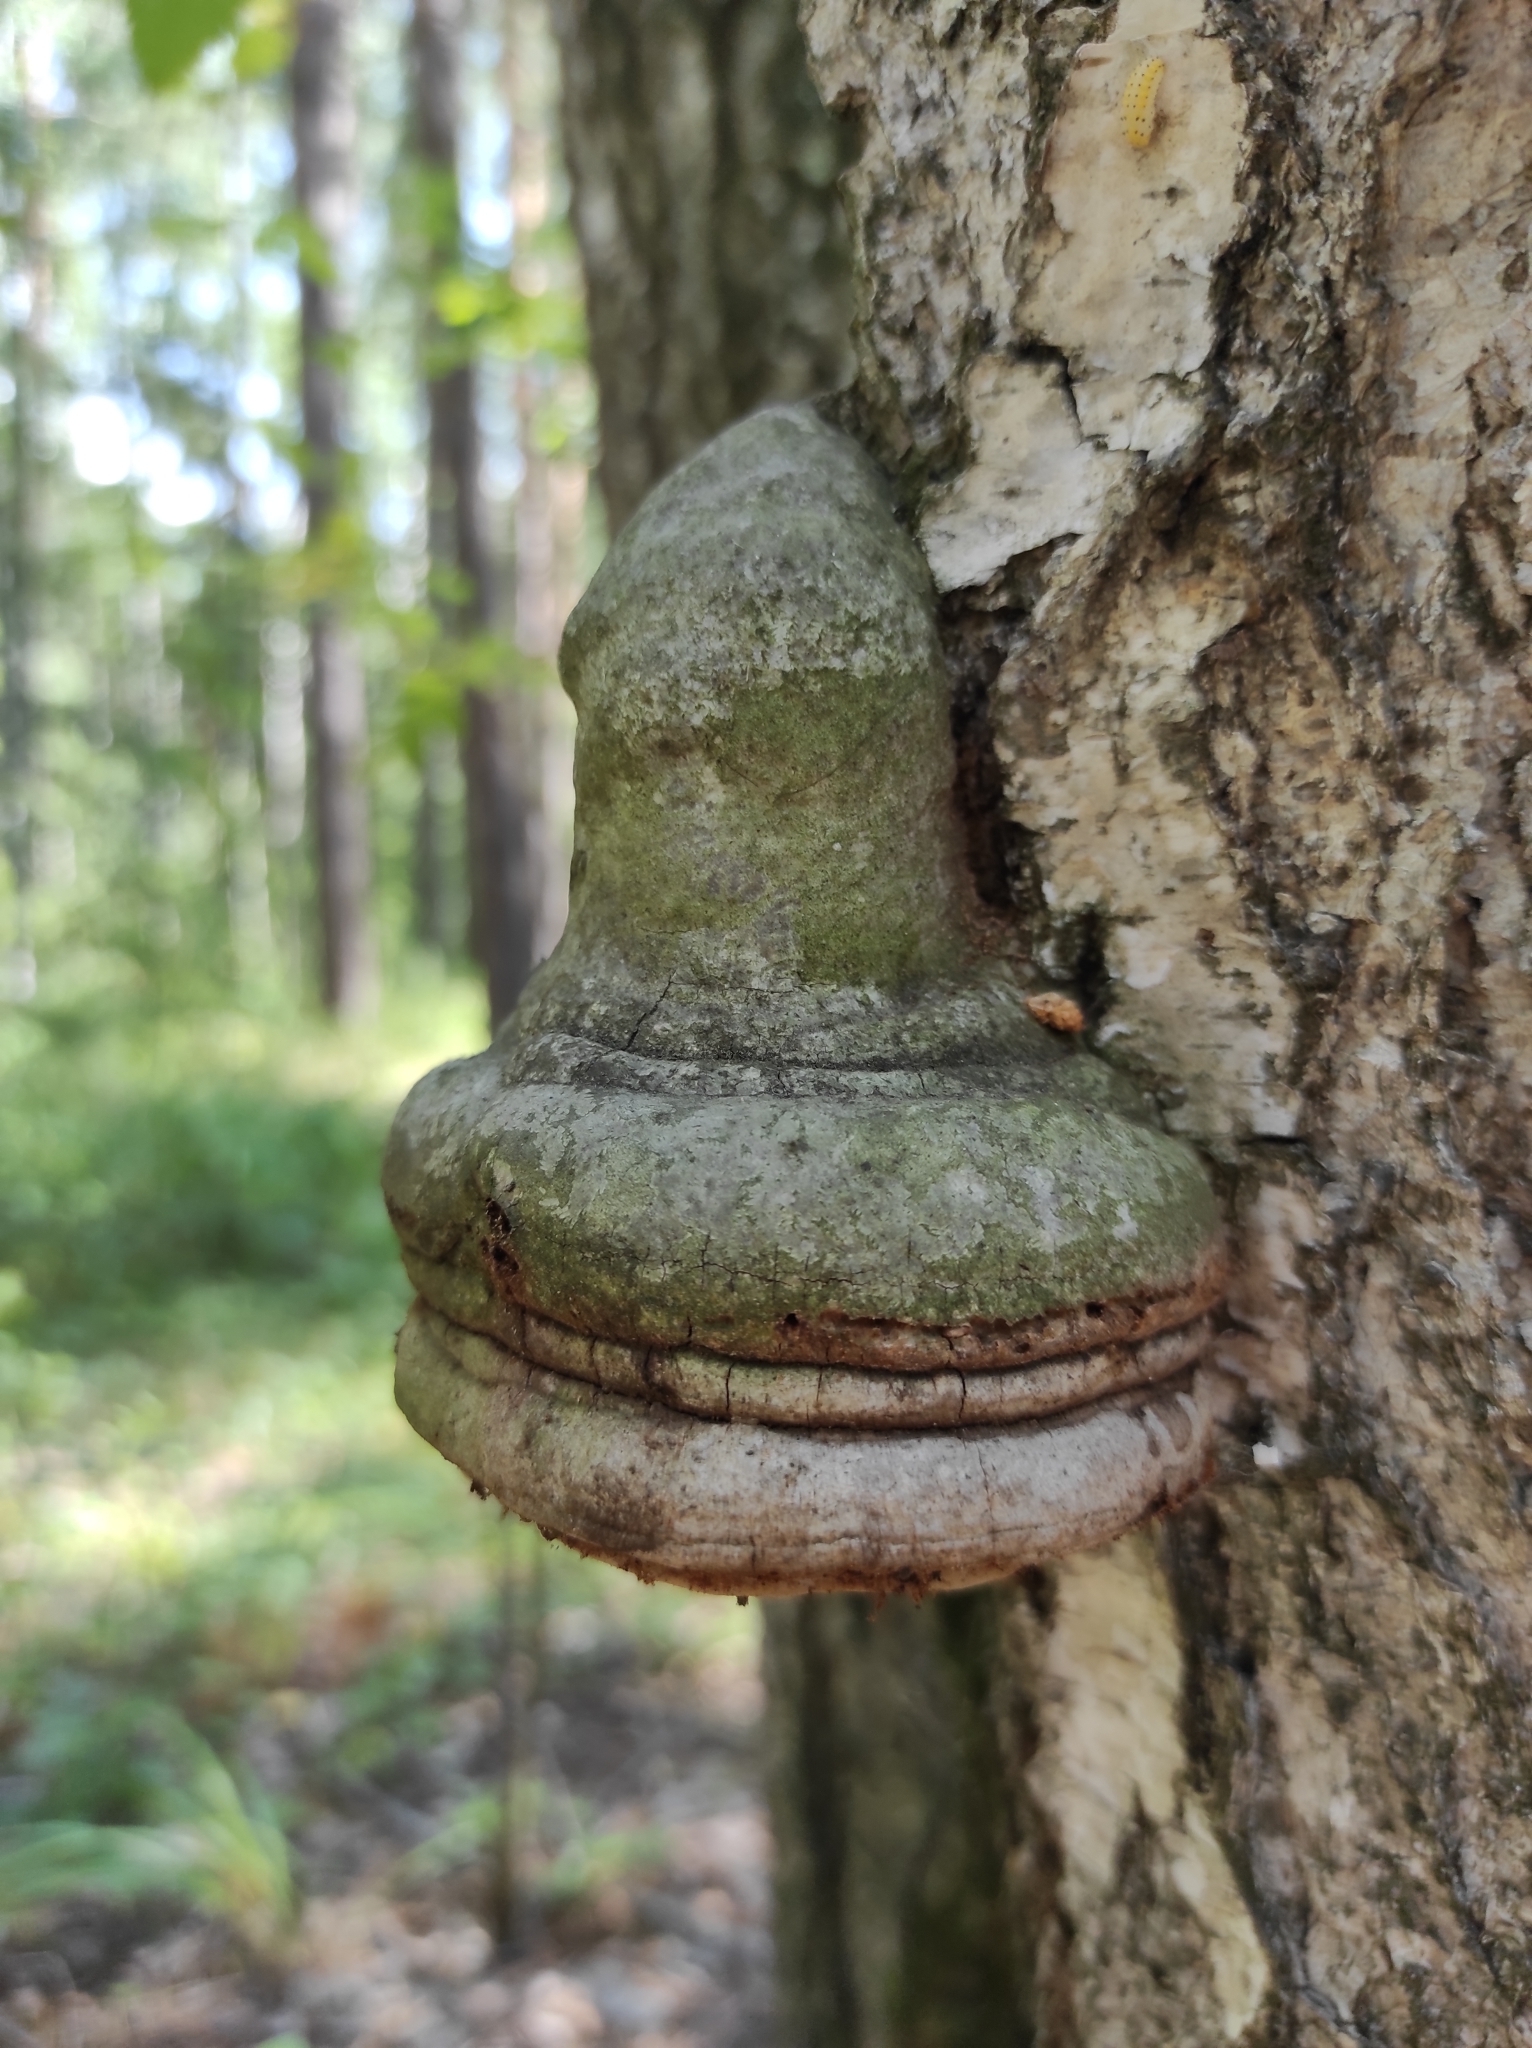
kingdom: Fungi
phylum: Basidiomycota
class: Agaricomycetes
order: Polyporales
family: Polyporaceae
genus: Fomes
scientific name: Fomes fomentarius
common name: Hoof fungus
